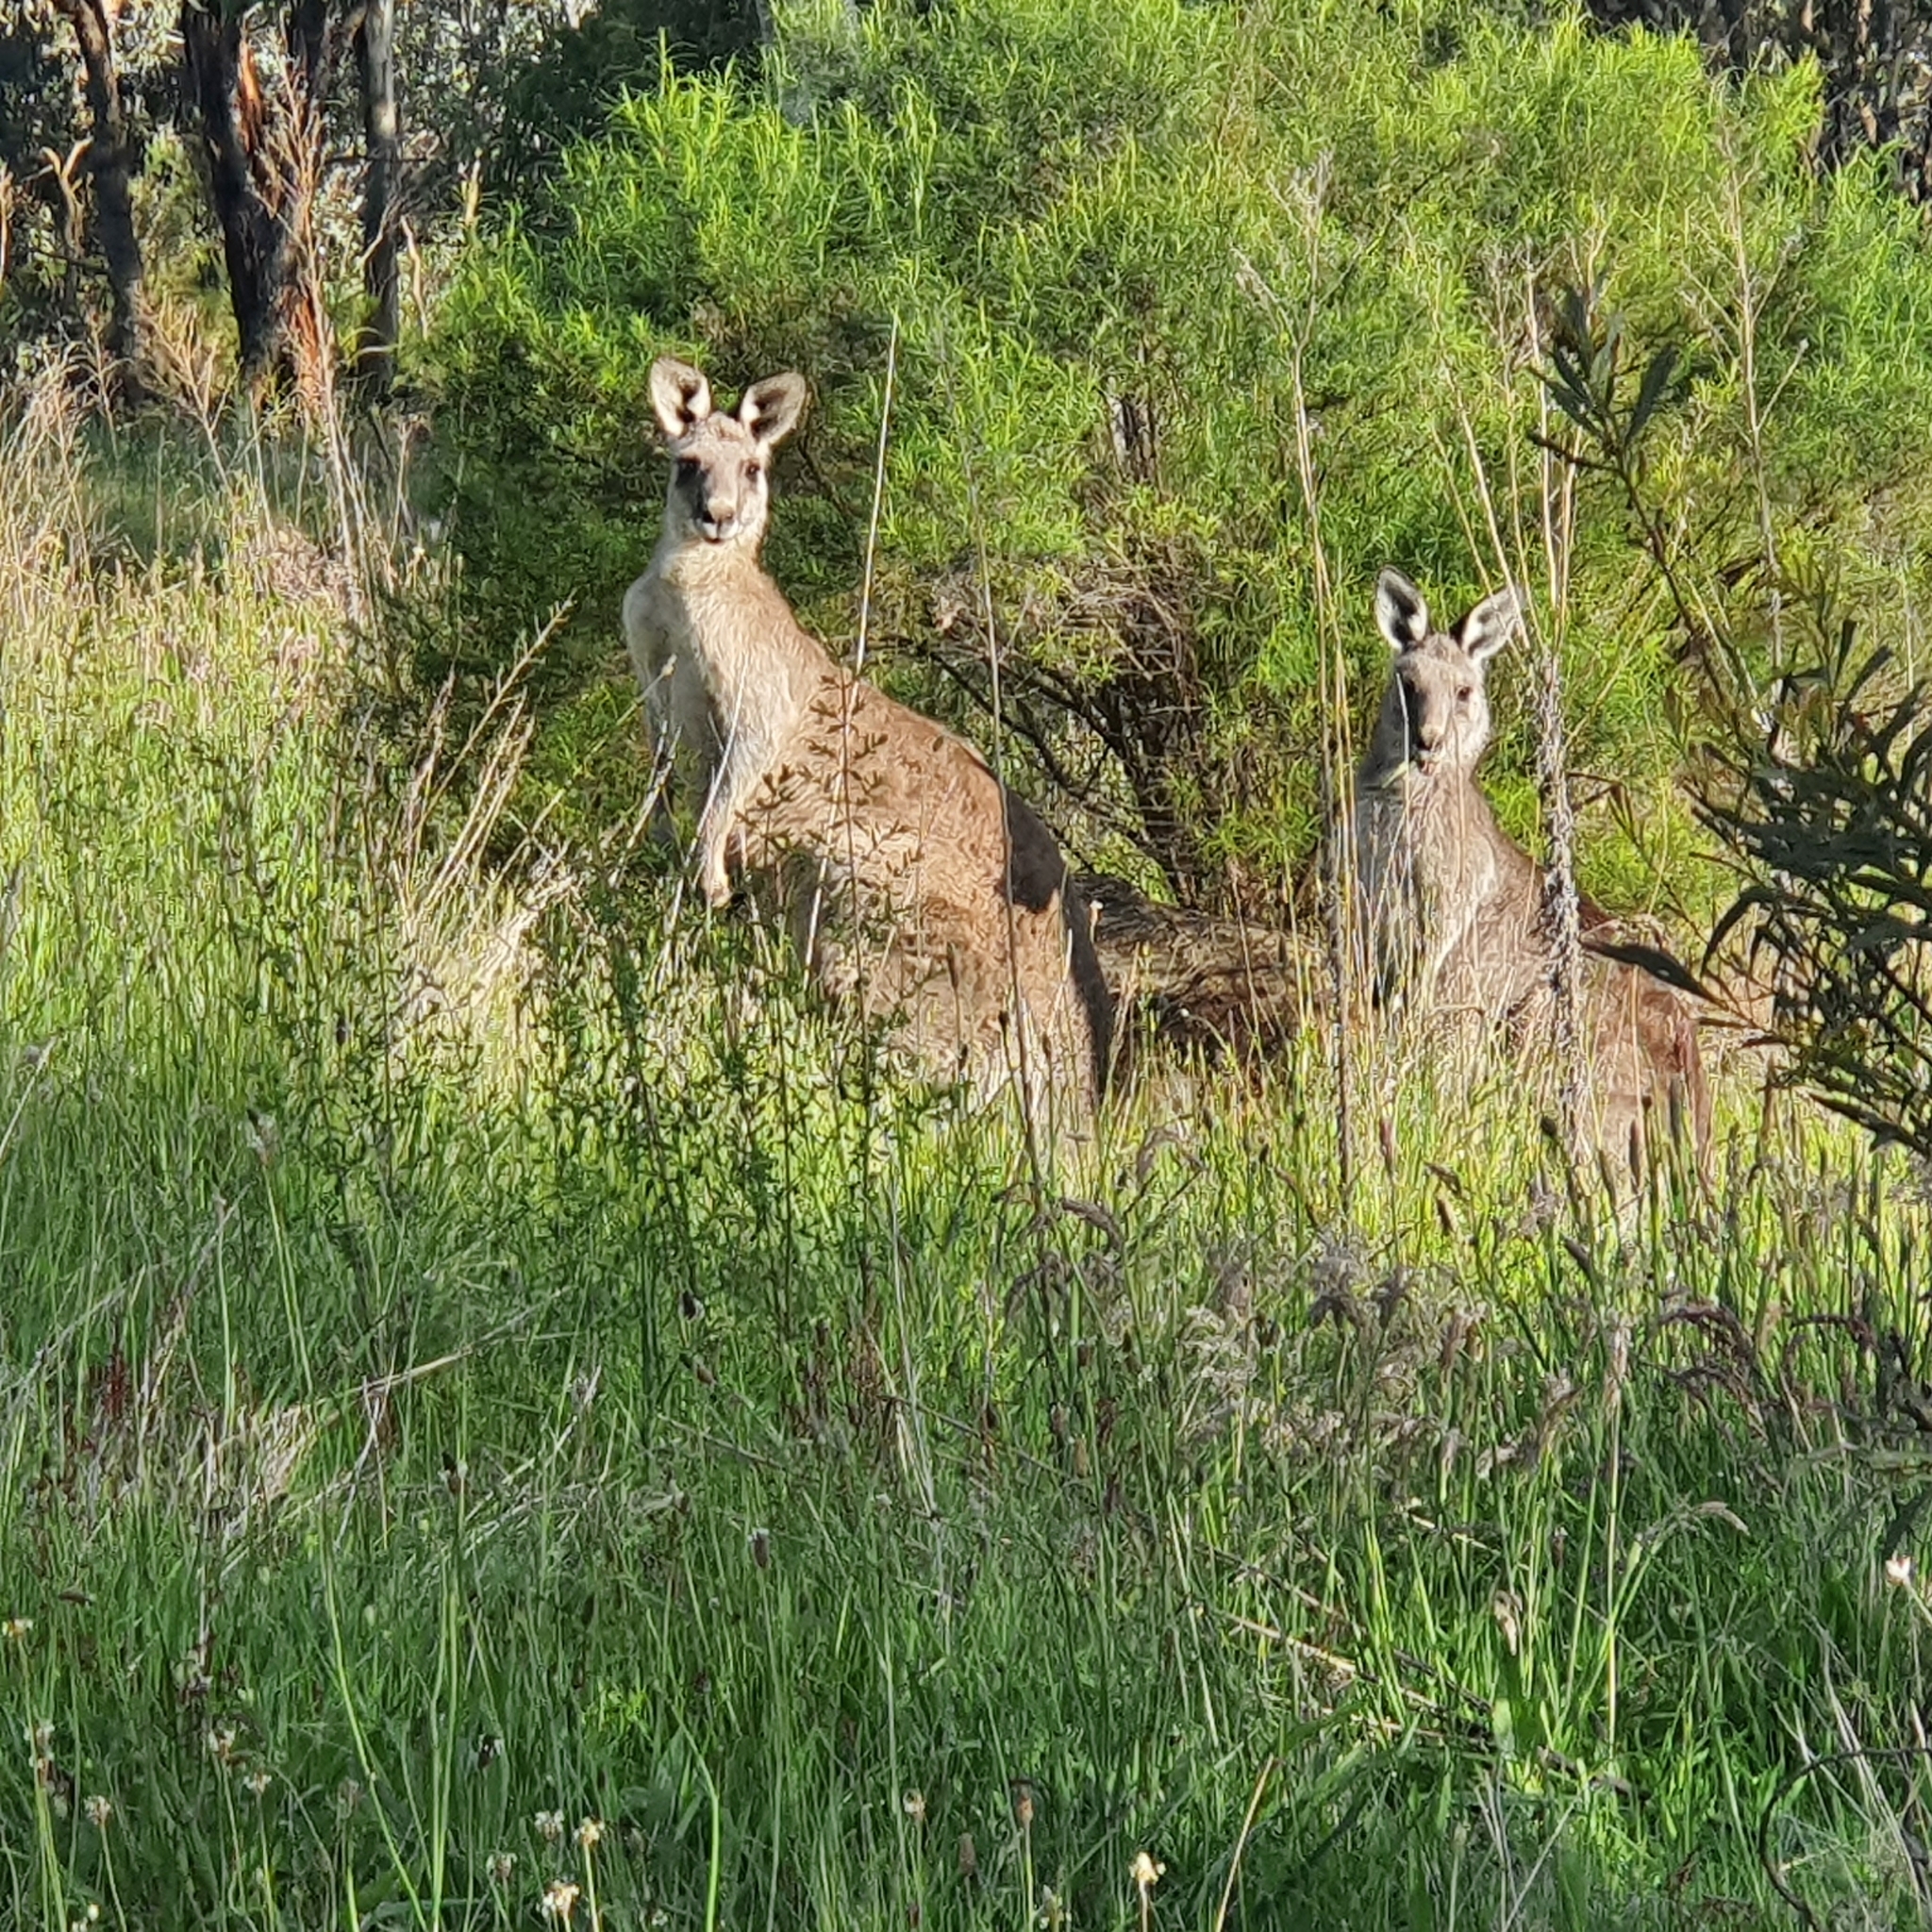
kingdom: Animalia
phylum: Chordata
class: Mammalia
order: Diprotodontia
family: Macropodidae
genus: Macropus
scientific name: Macropus giganteus
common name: Eastern grey kangaroo
